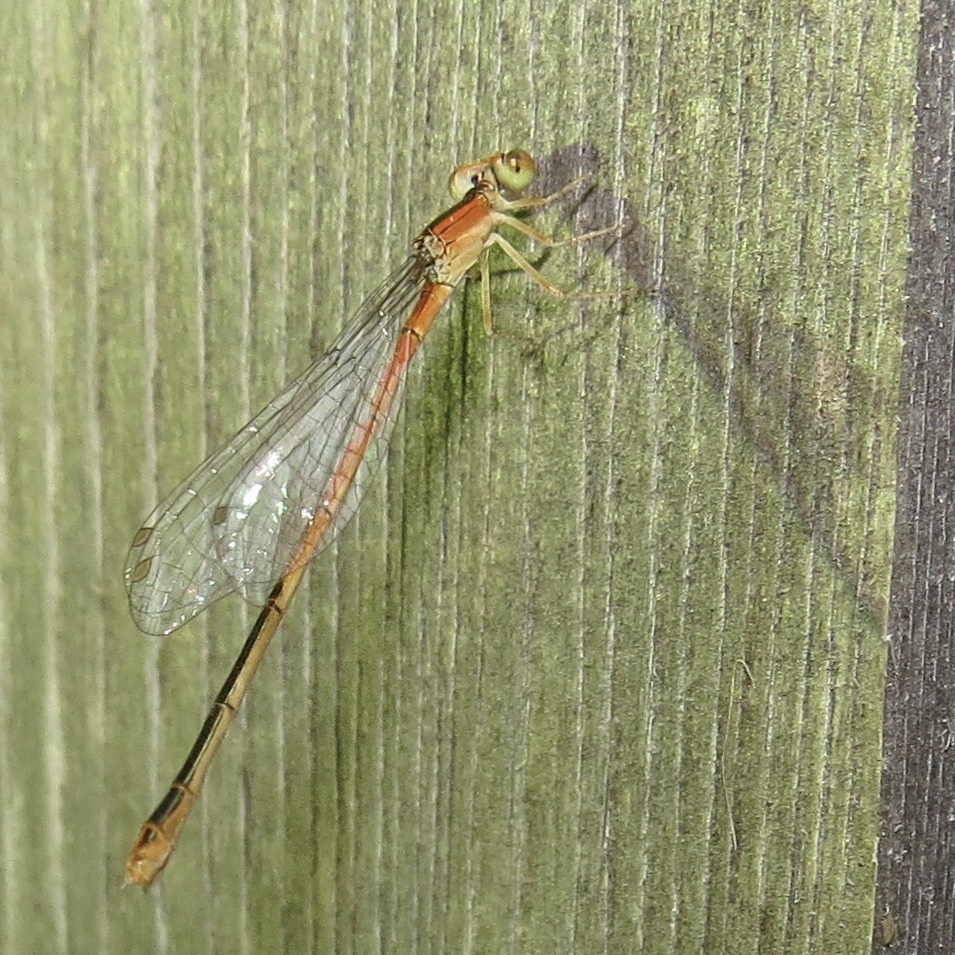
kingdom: Animalia
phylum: Arthropoda
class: Insecta
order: Odonata
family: Coenagrionidae
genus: Ischnura
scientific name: Ischnura hastata
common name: Citrine forktail
